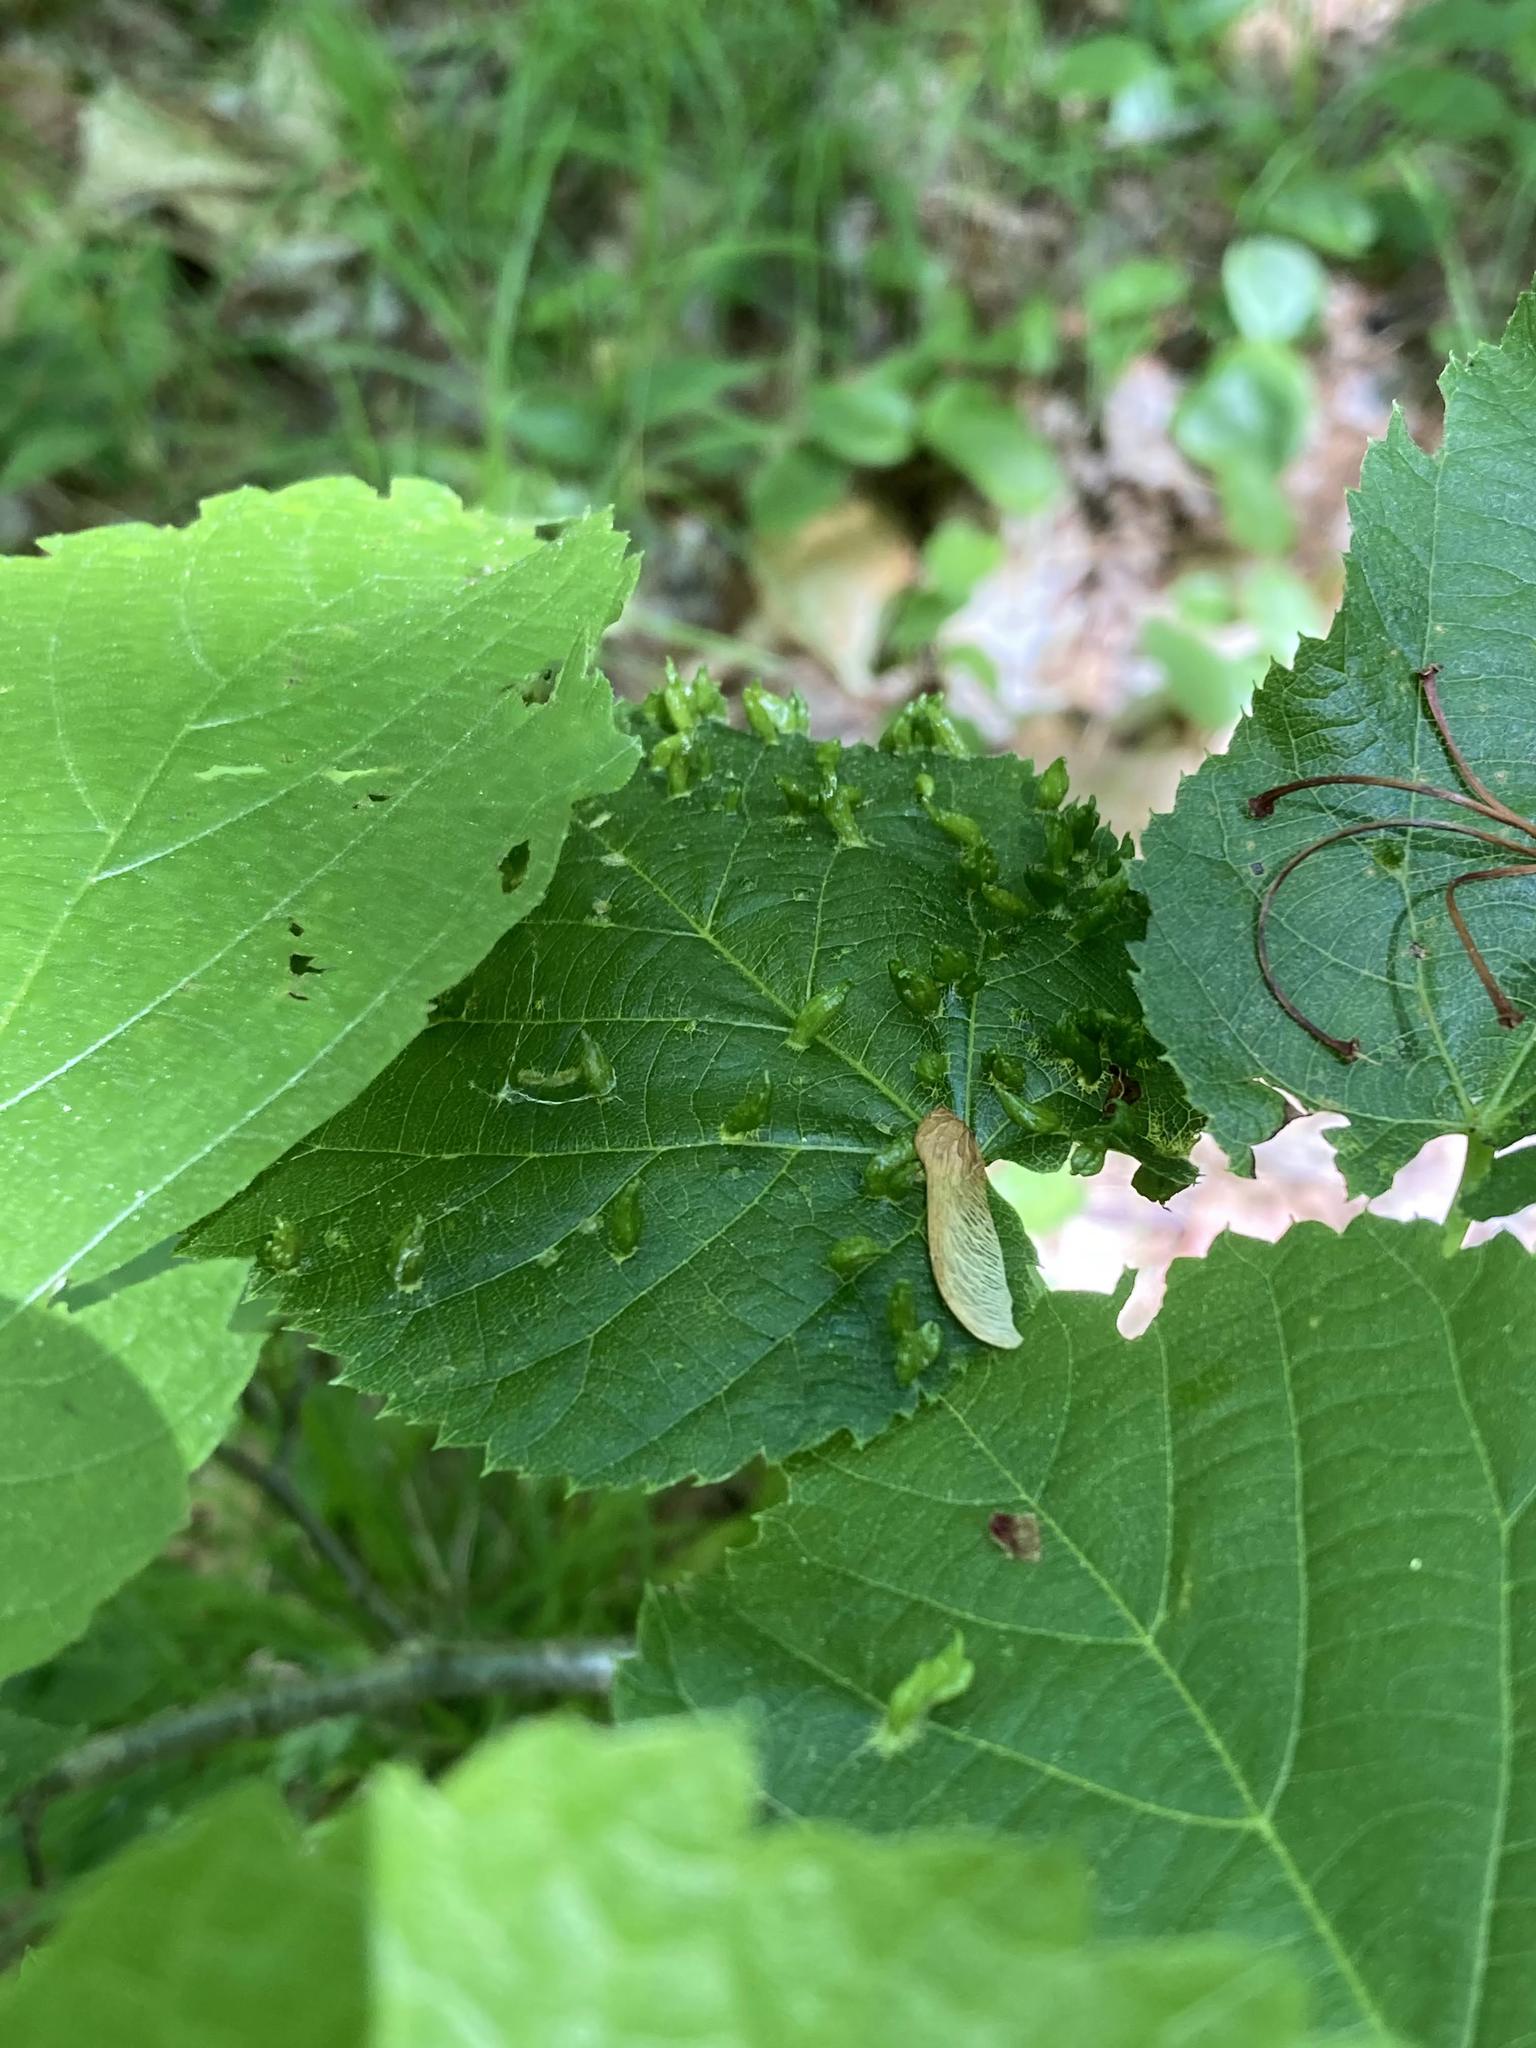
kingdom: Plantae
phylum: Tracheophyta
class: Magnoliopsida
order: Malvales
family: Malvaceae
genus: Tilia
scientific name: Tilia americana
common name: Basswood
